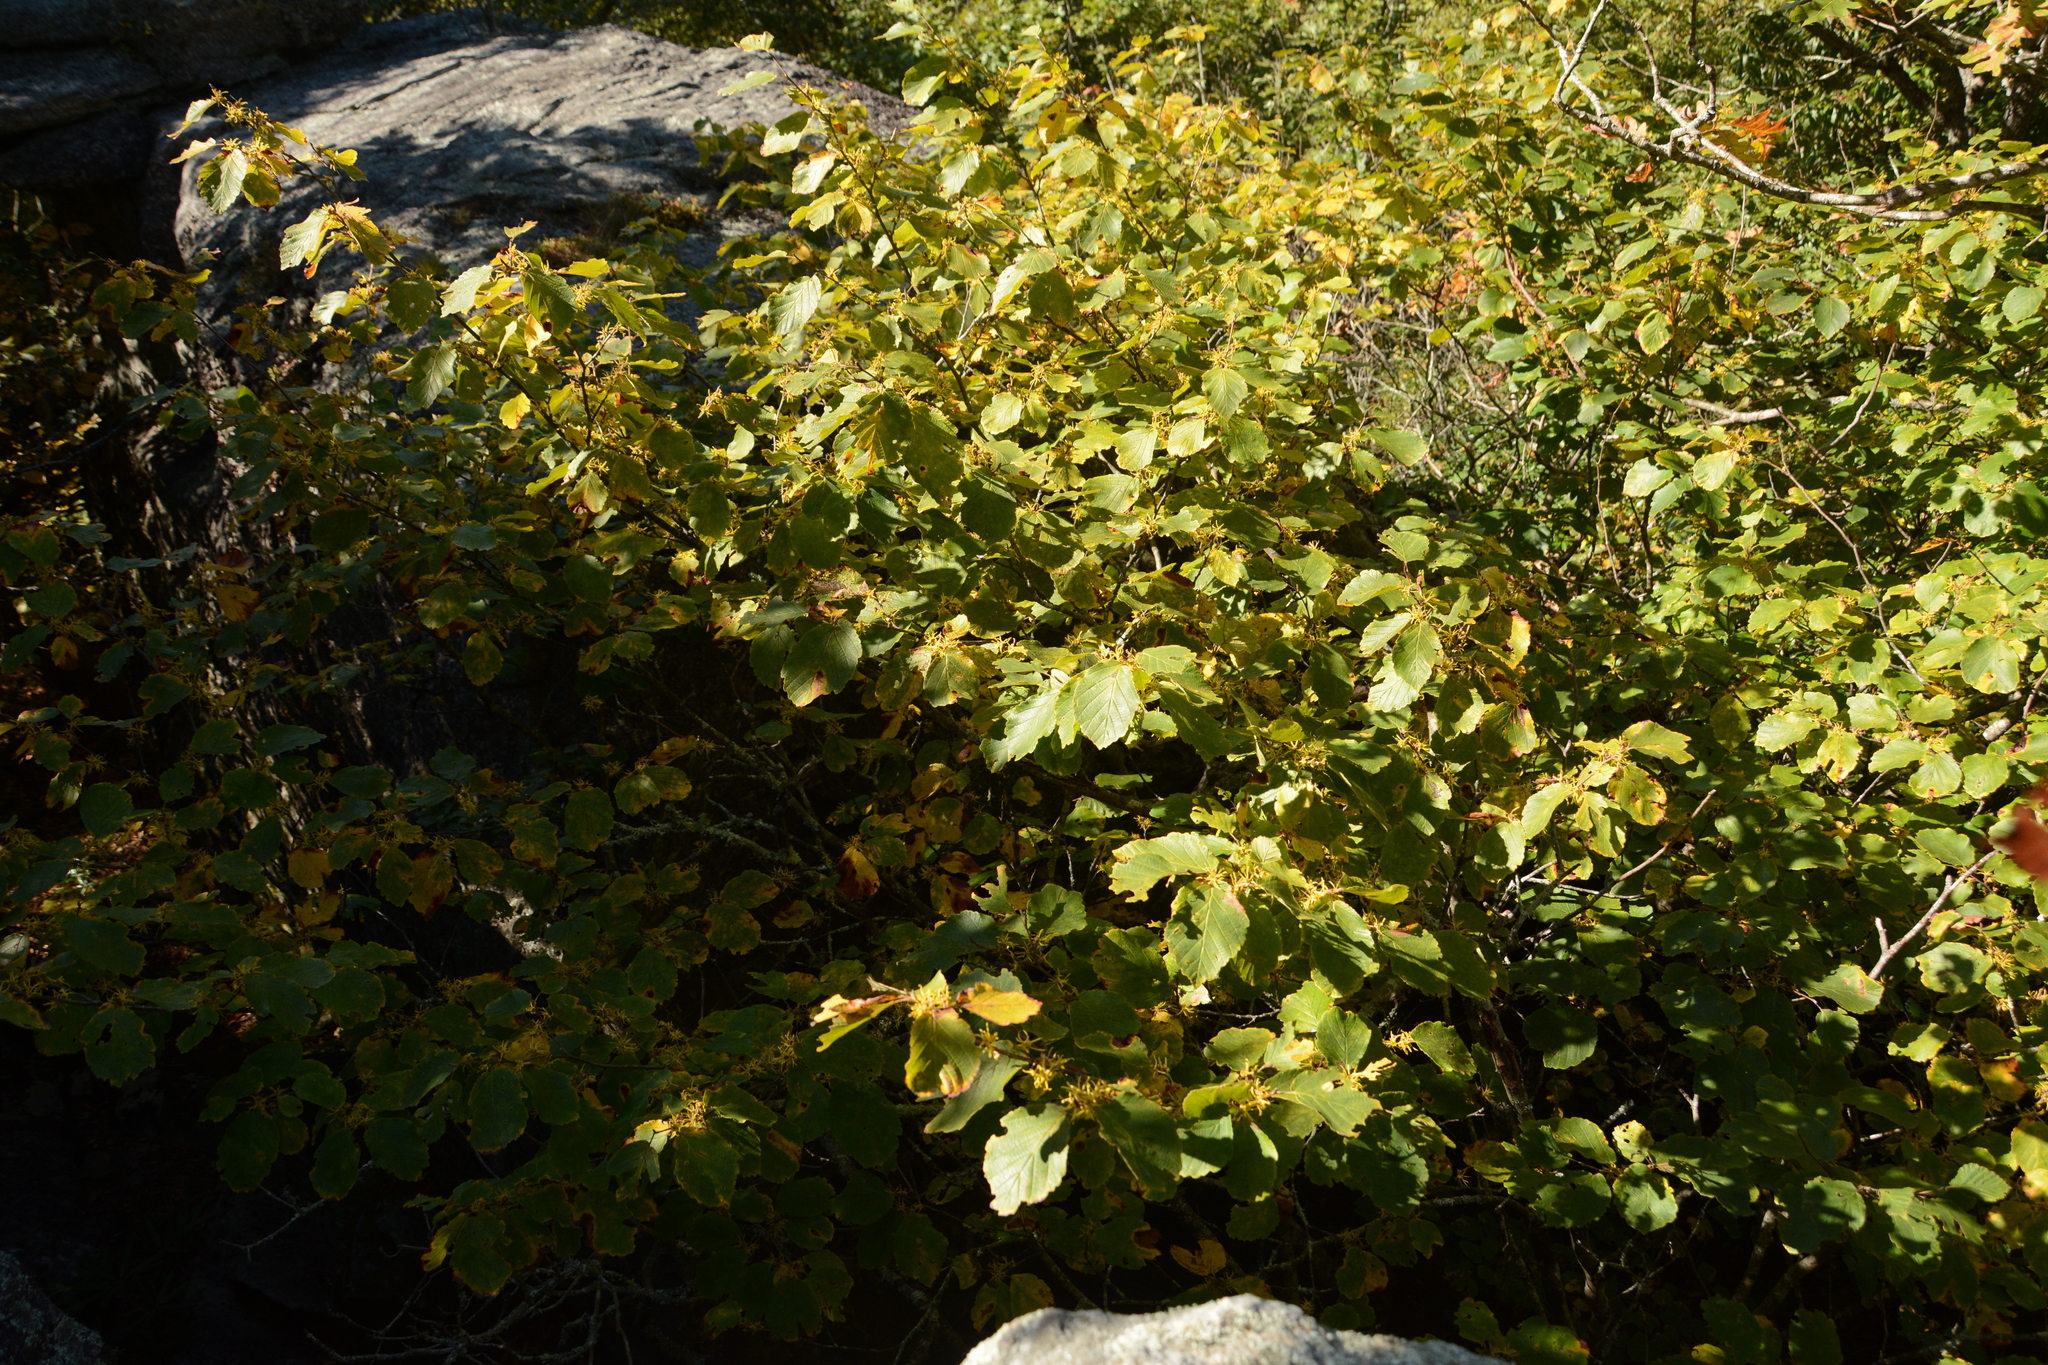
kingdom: Plantae
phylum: Tracheophyta
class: Magnoliopsida
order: Saxifragales
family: Hamamelidaceae
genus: Hamamelis
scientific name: Hamamelis virginiana
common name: Witch-hazel
